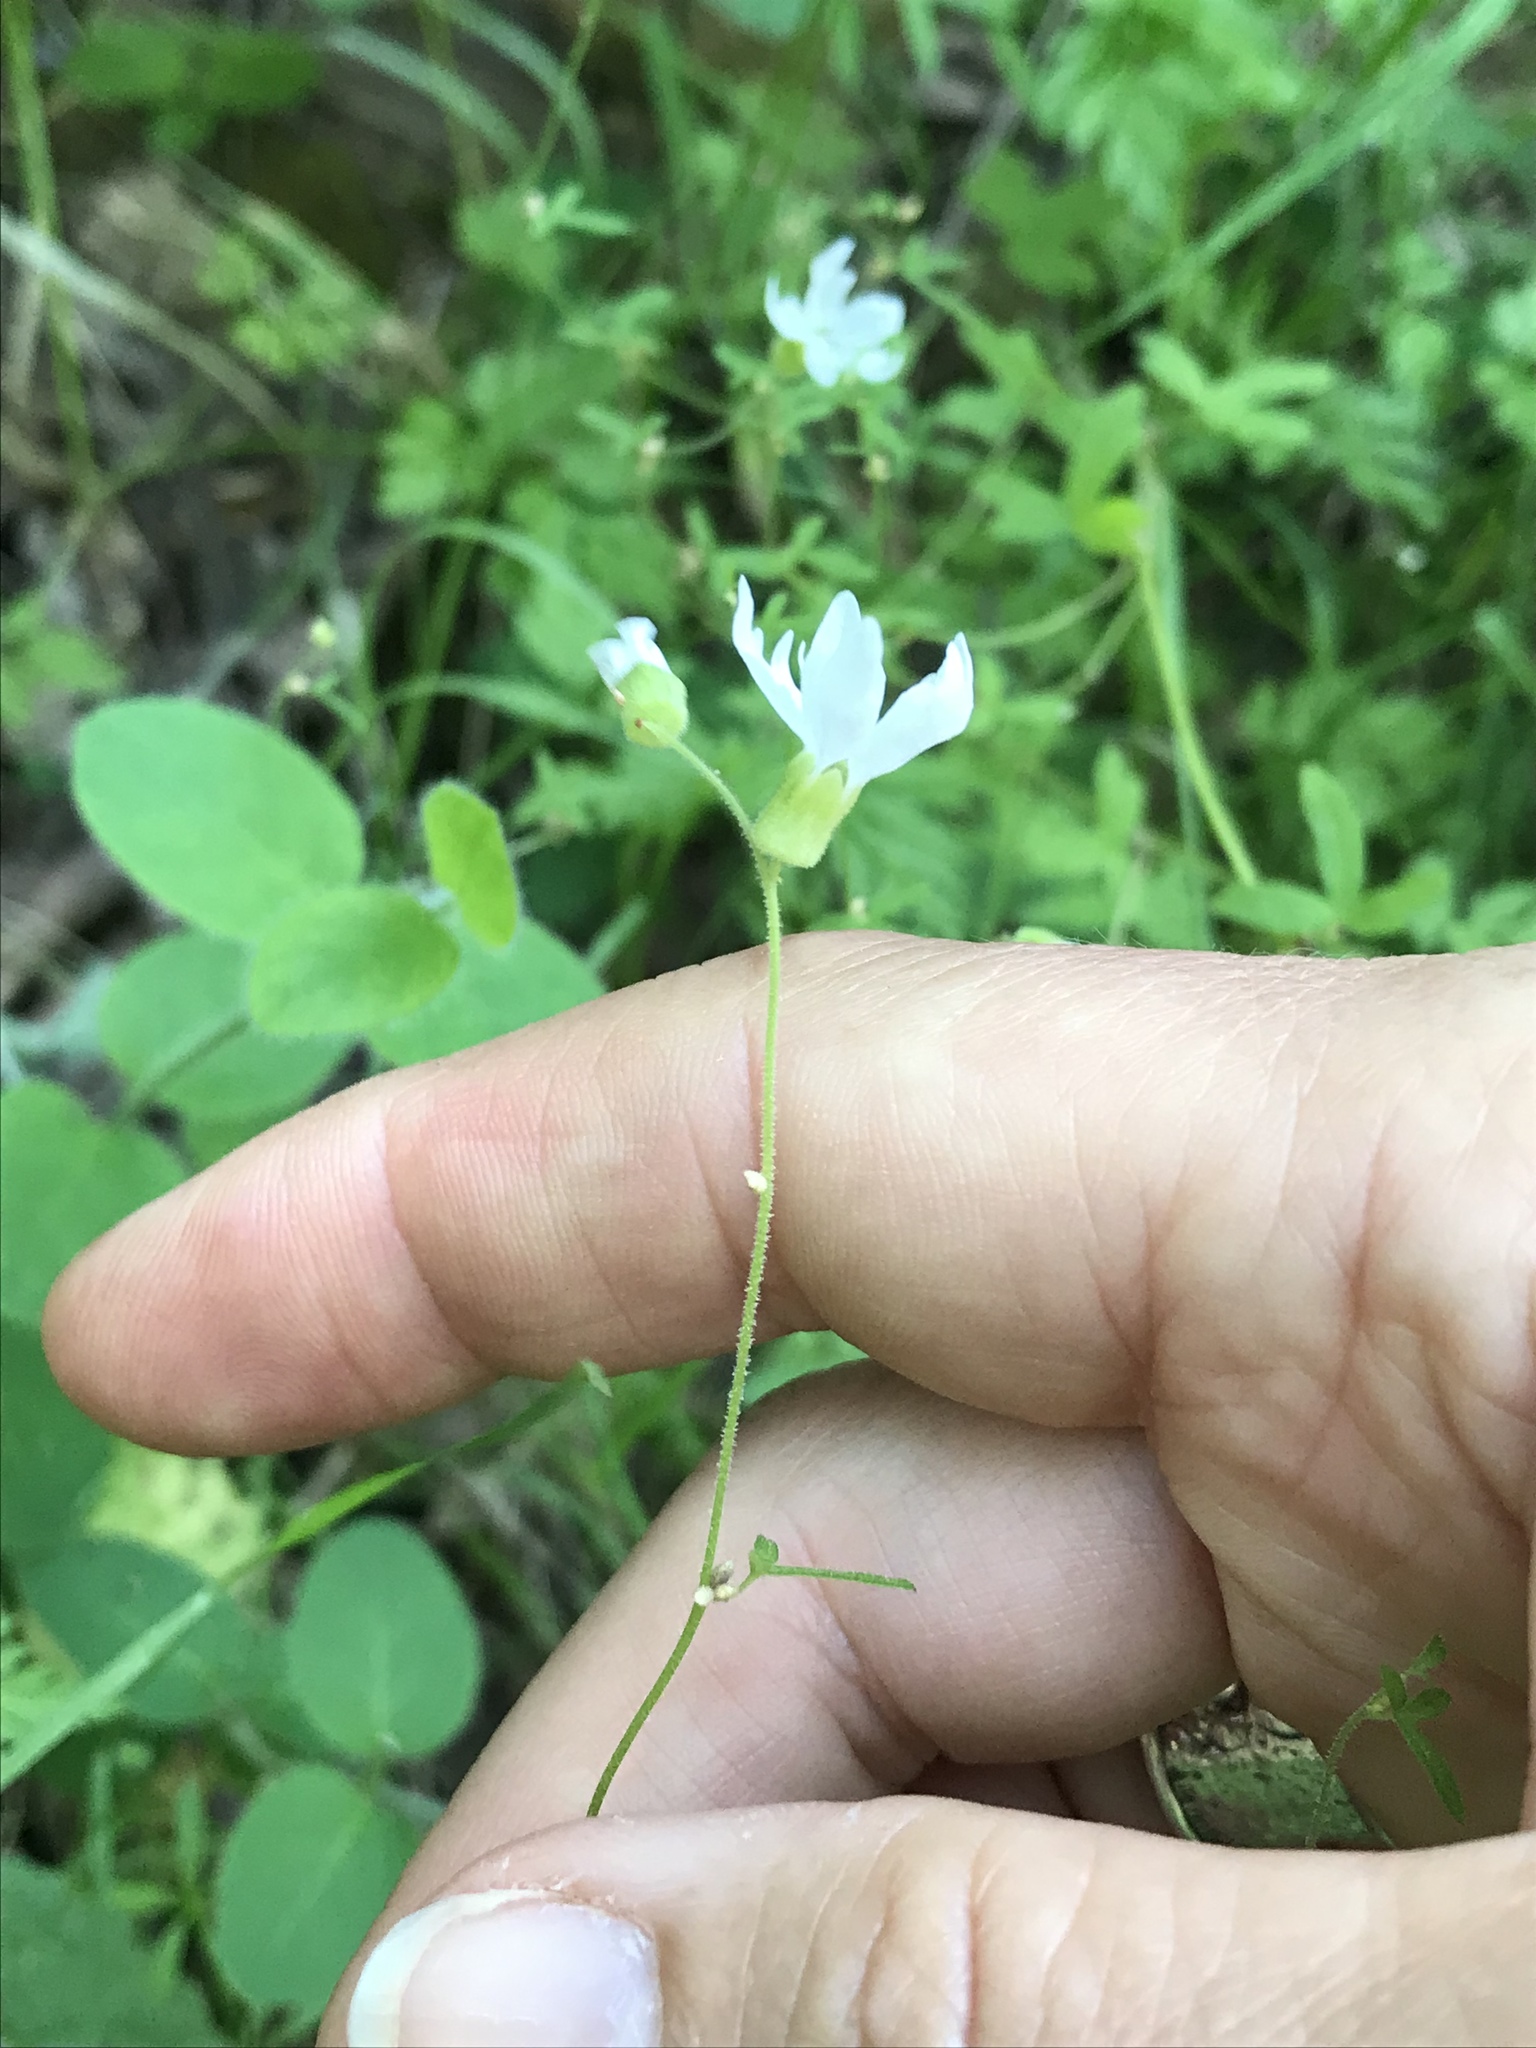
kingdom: Plantae
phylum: Tracheophyta
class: Magnoliopsida
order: Saxifragales
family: Saxifragaceae
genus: Lithophragma
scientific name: Lithophragma heterophyllum
